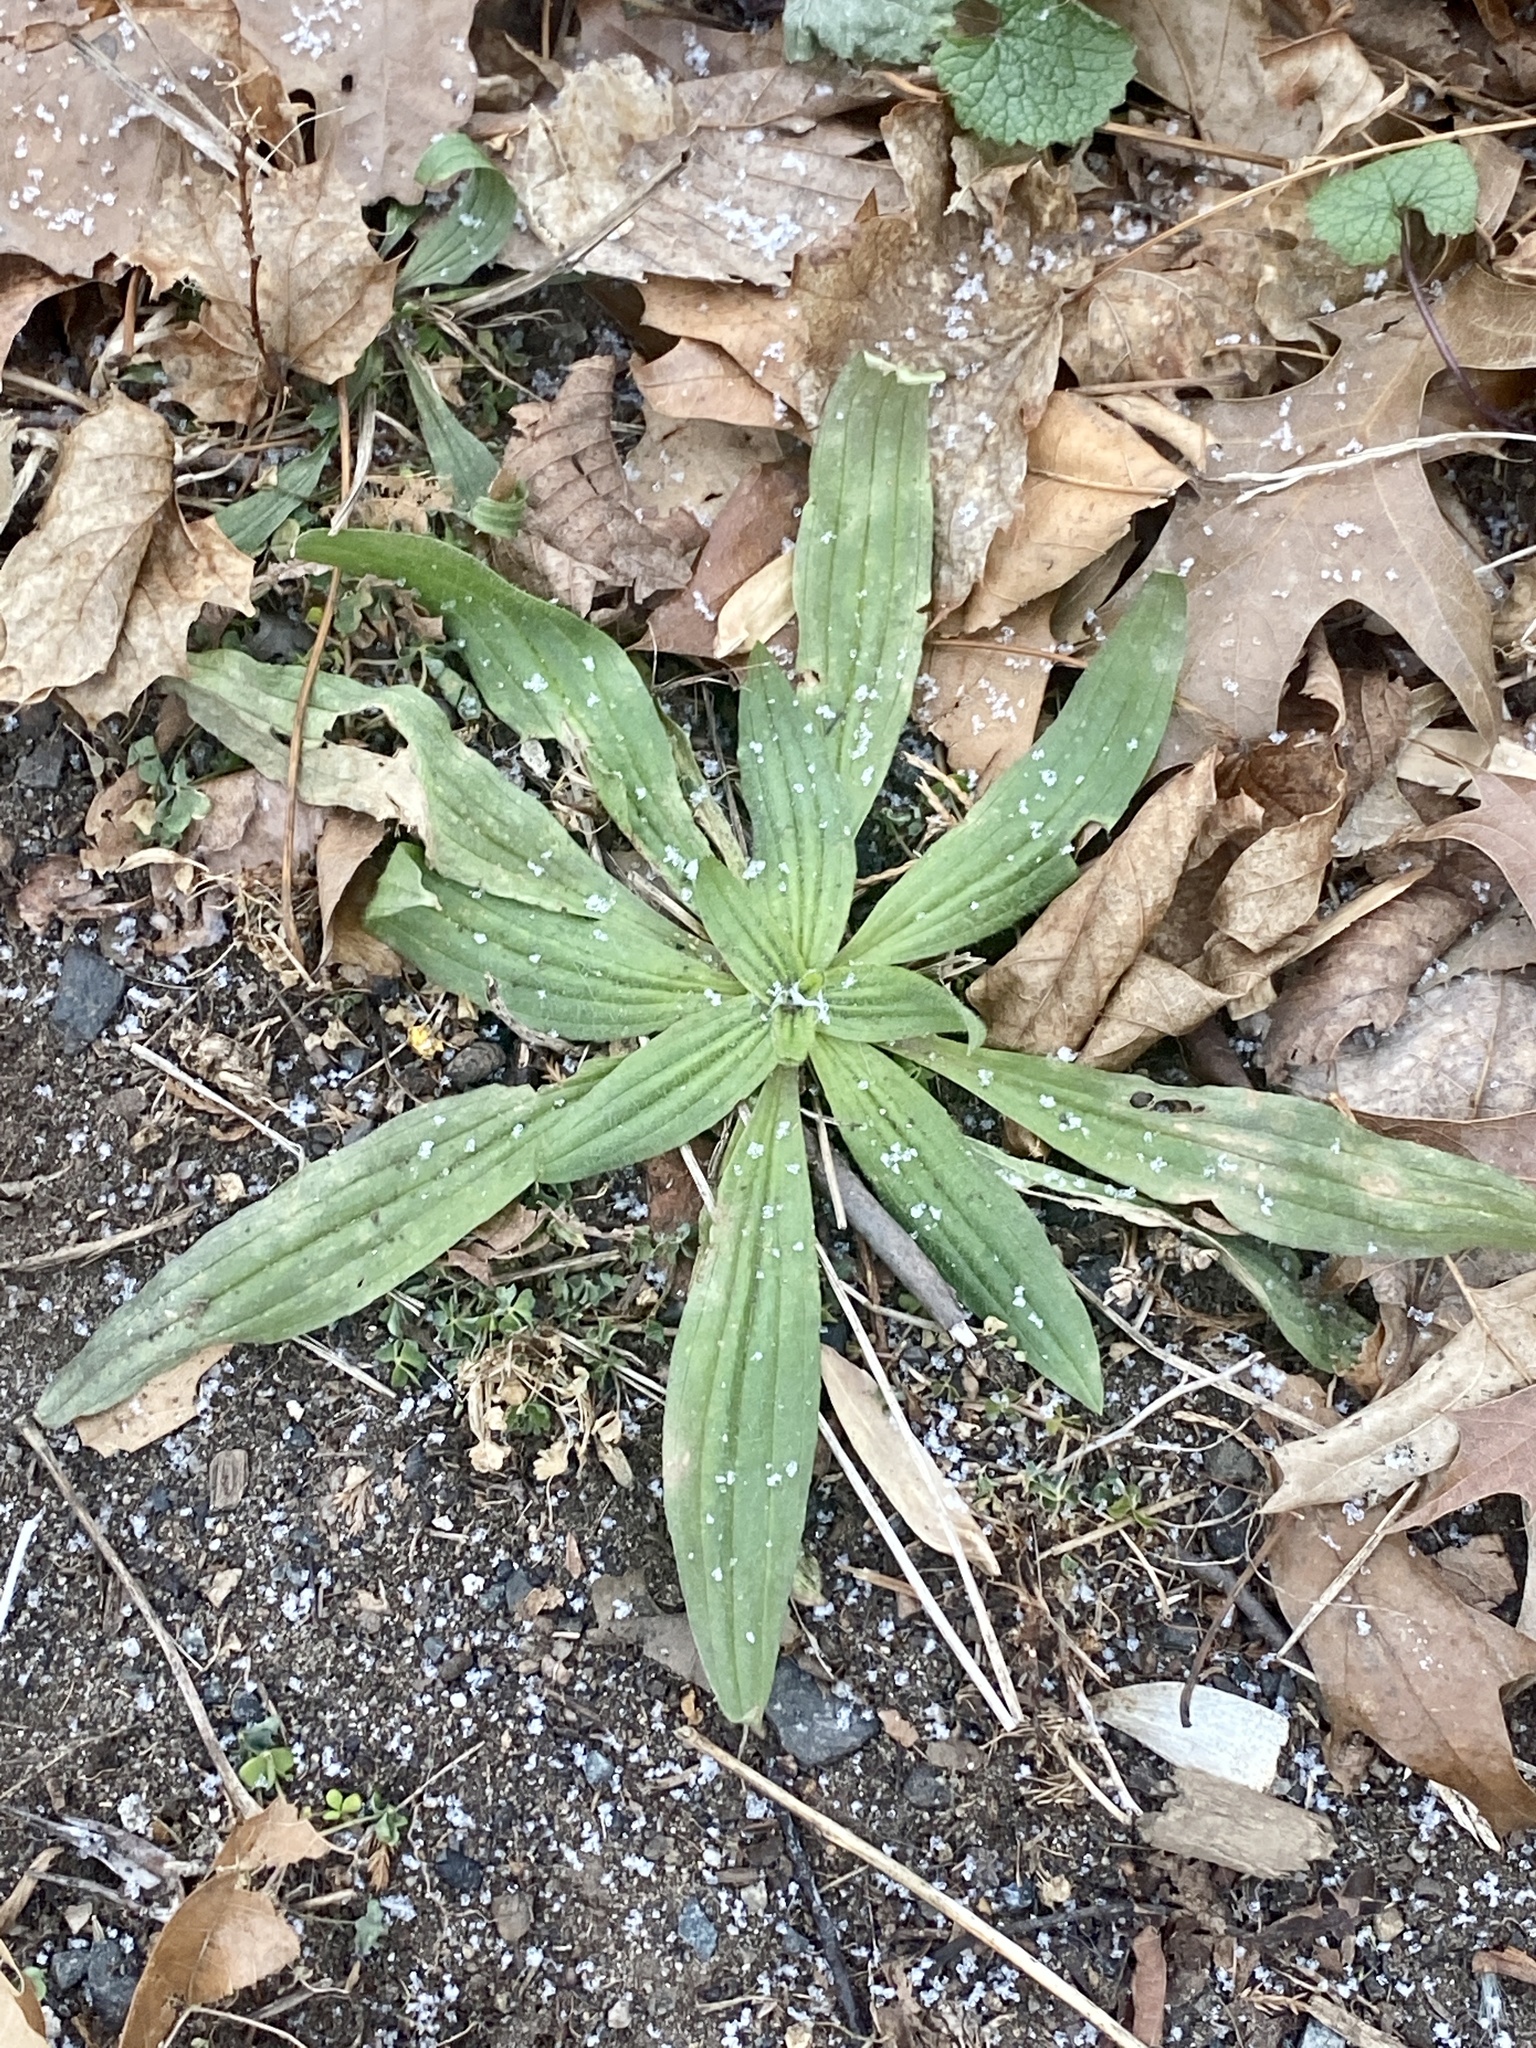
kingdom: Plantae
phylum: Tracheophyta
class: Magnoliopsida
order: Lamiales
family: Plantaginaceae
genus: Plantago
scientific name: Plantago lanceolata
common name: Ribwort plantain
